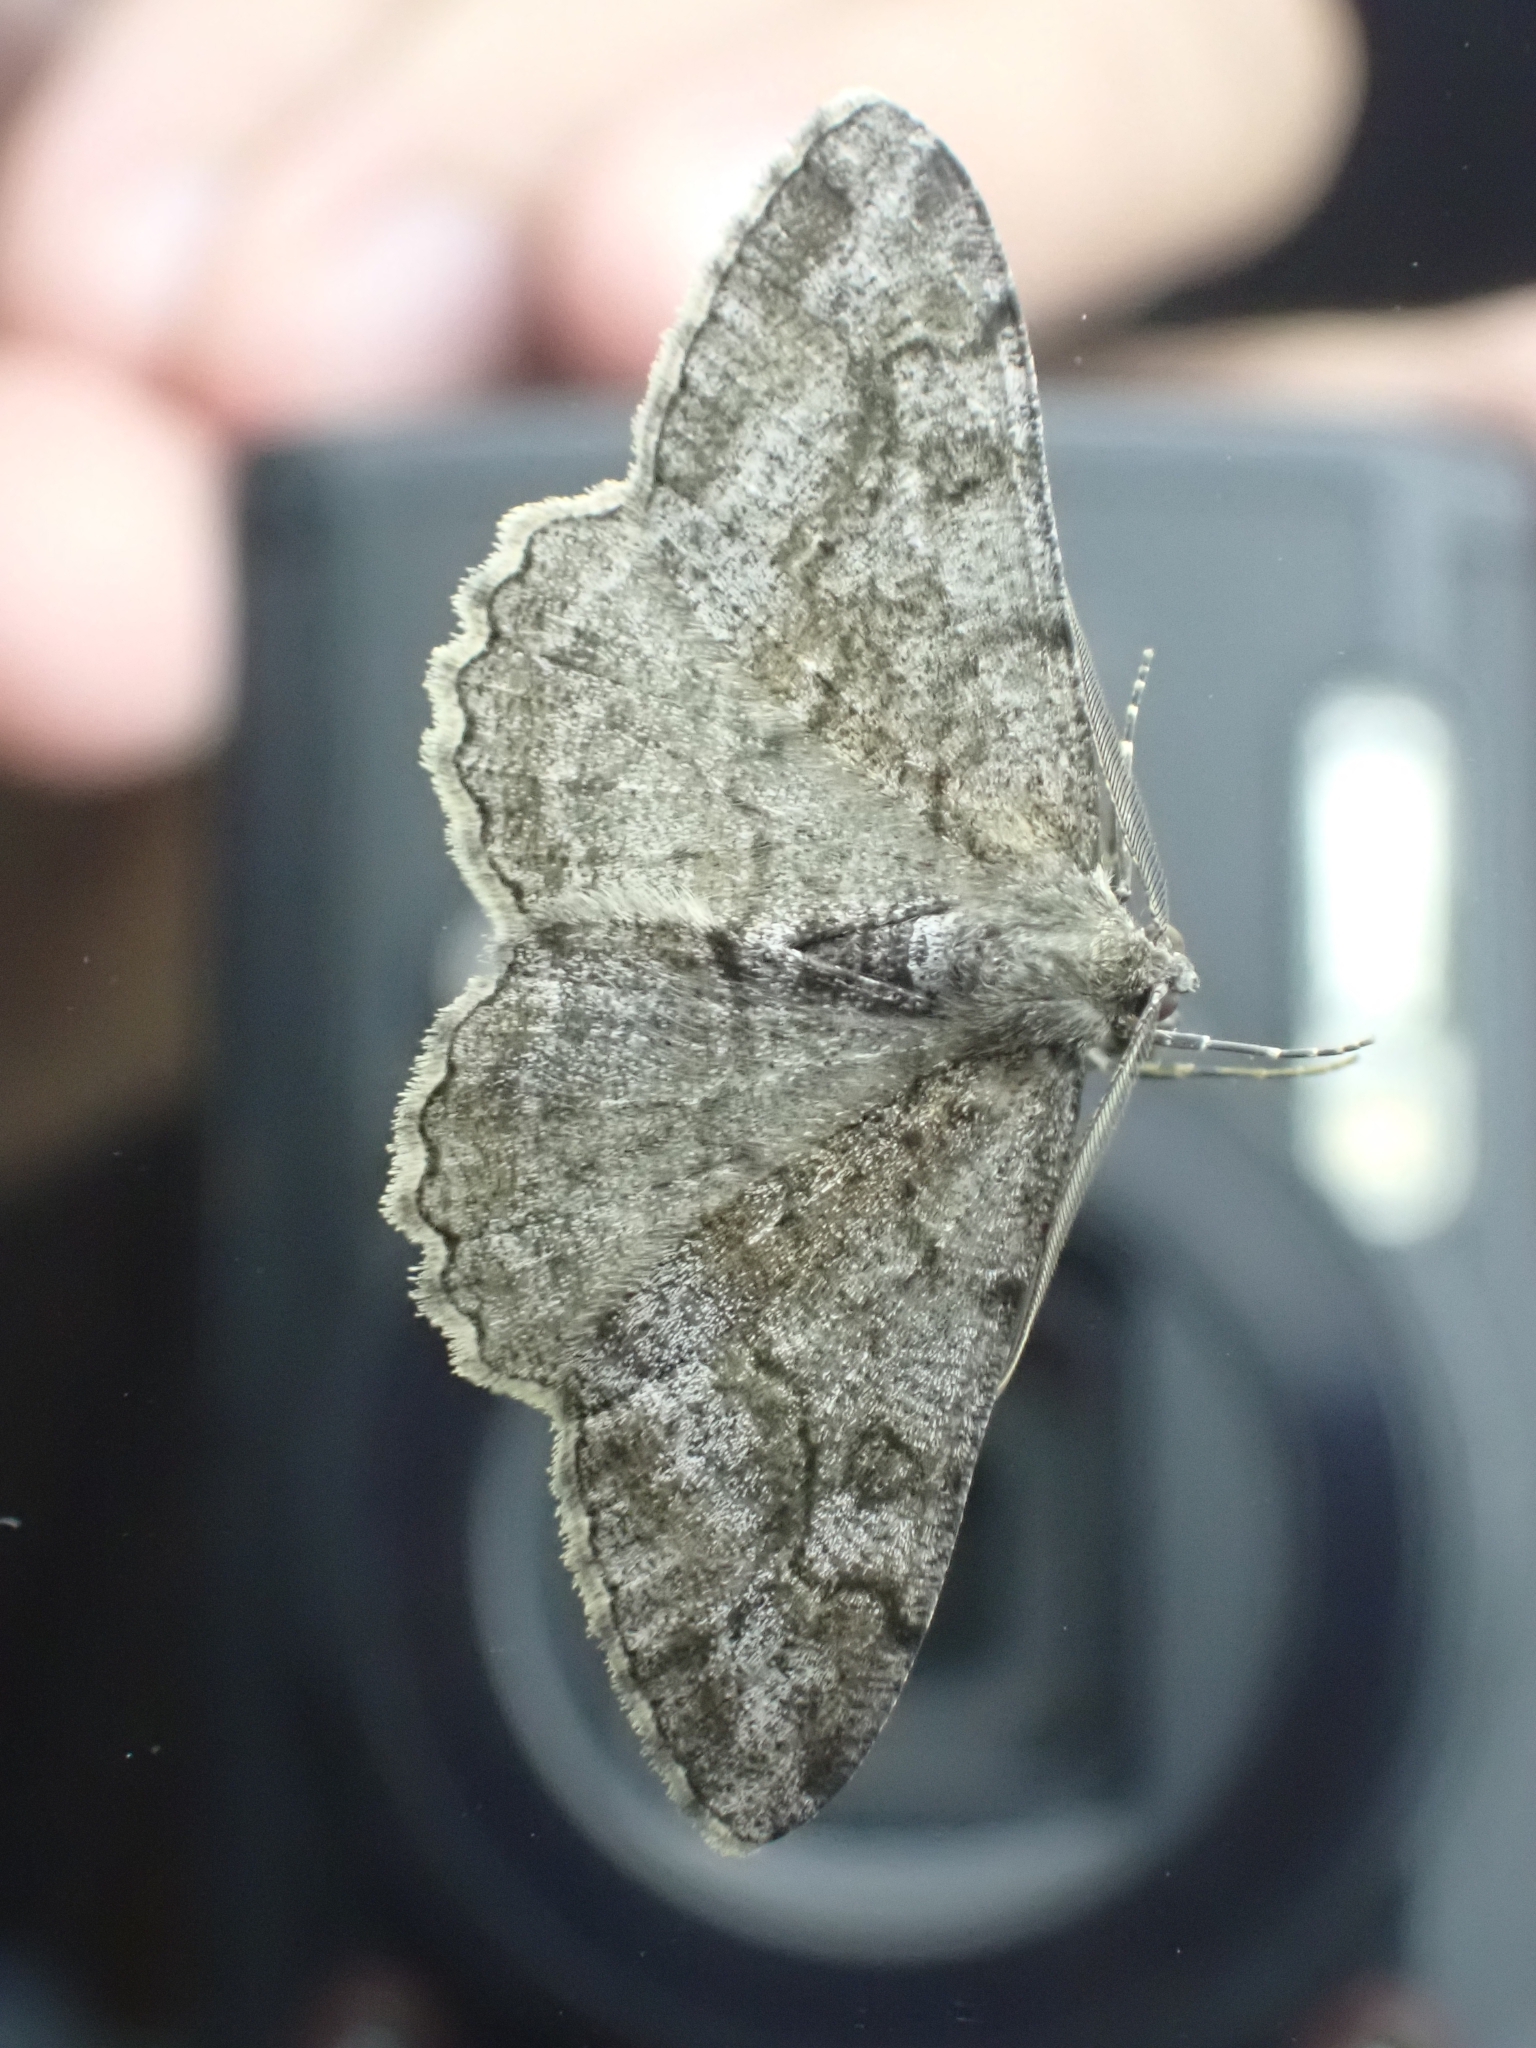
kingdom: Animalia
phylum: Arthropoda
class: Insecta
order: Lepidoptera
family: Geometridae
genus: Alcis
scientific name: Alcis repandata
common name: Mottled beauty
